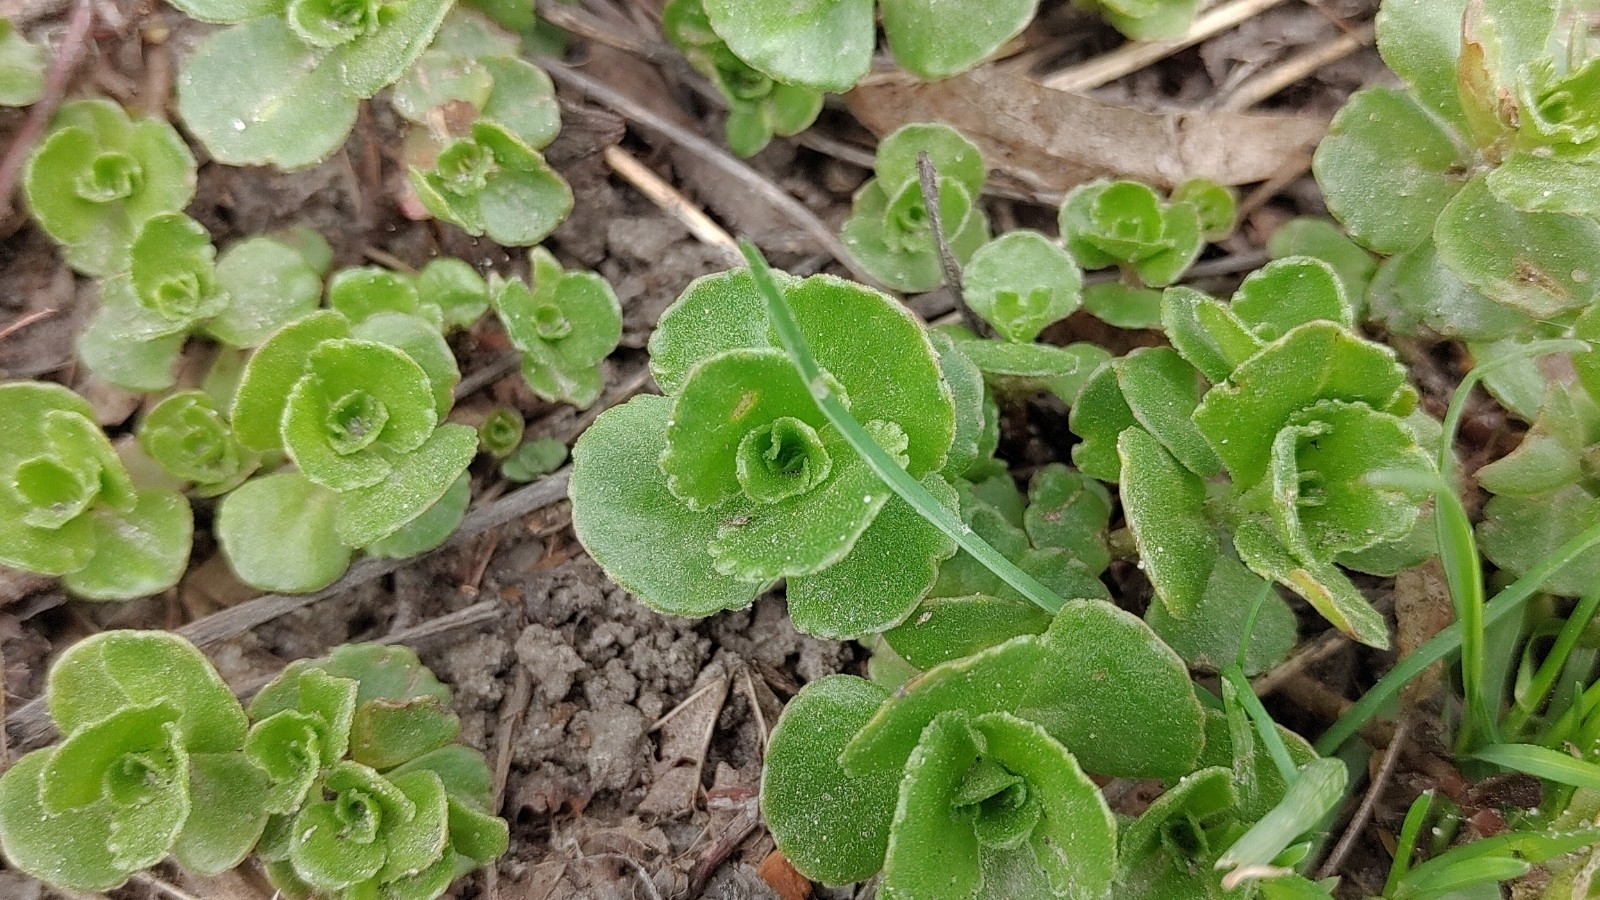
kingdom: Plantae
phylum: Tracheophyta
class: Magnoliopsida
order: Saxifragales
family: Crassulaceae
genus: Phedimus
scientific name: Phedimus spurius
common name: Caucasian stonecrop
